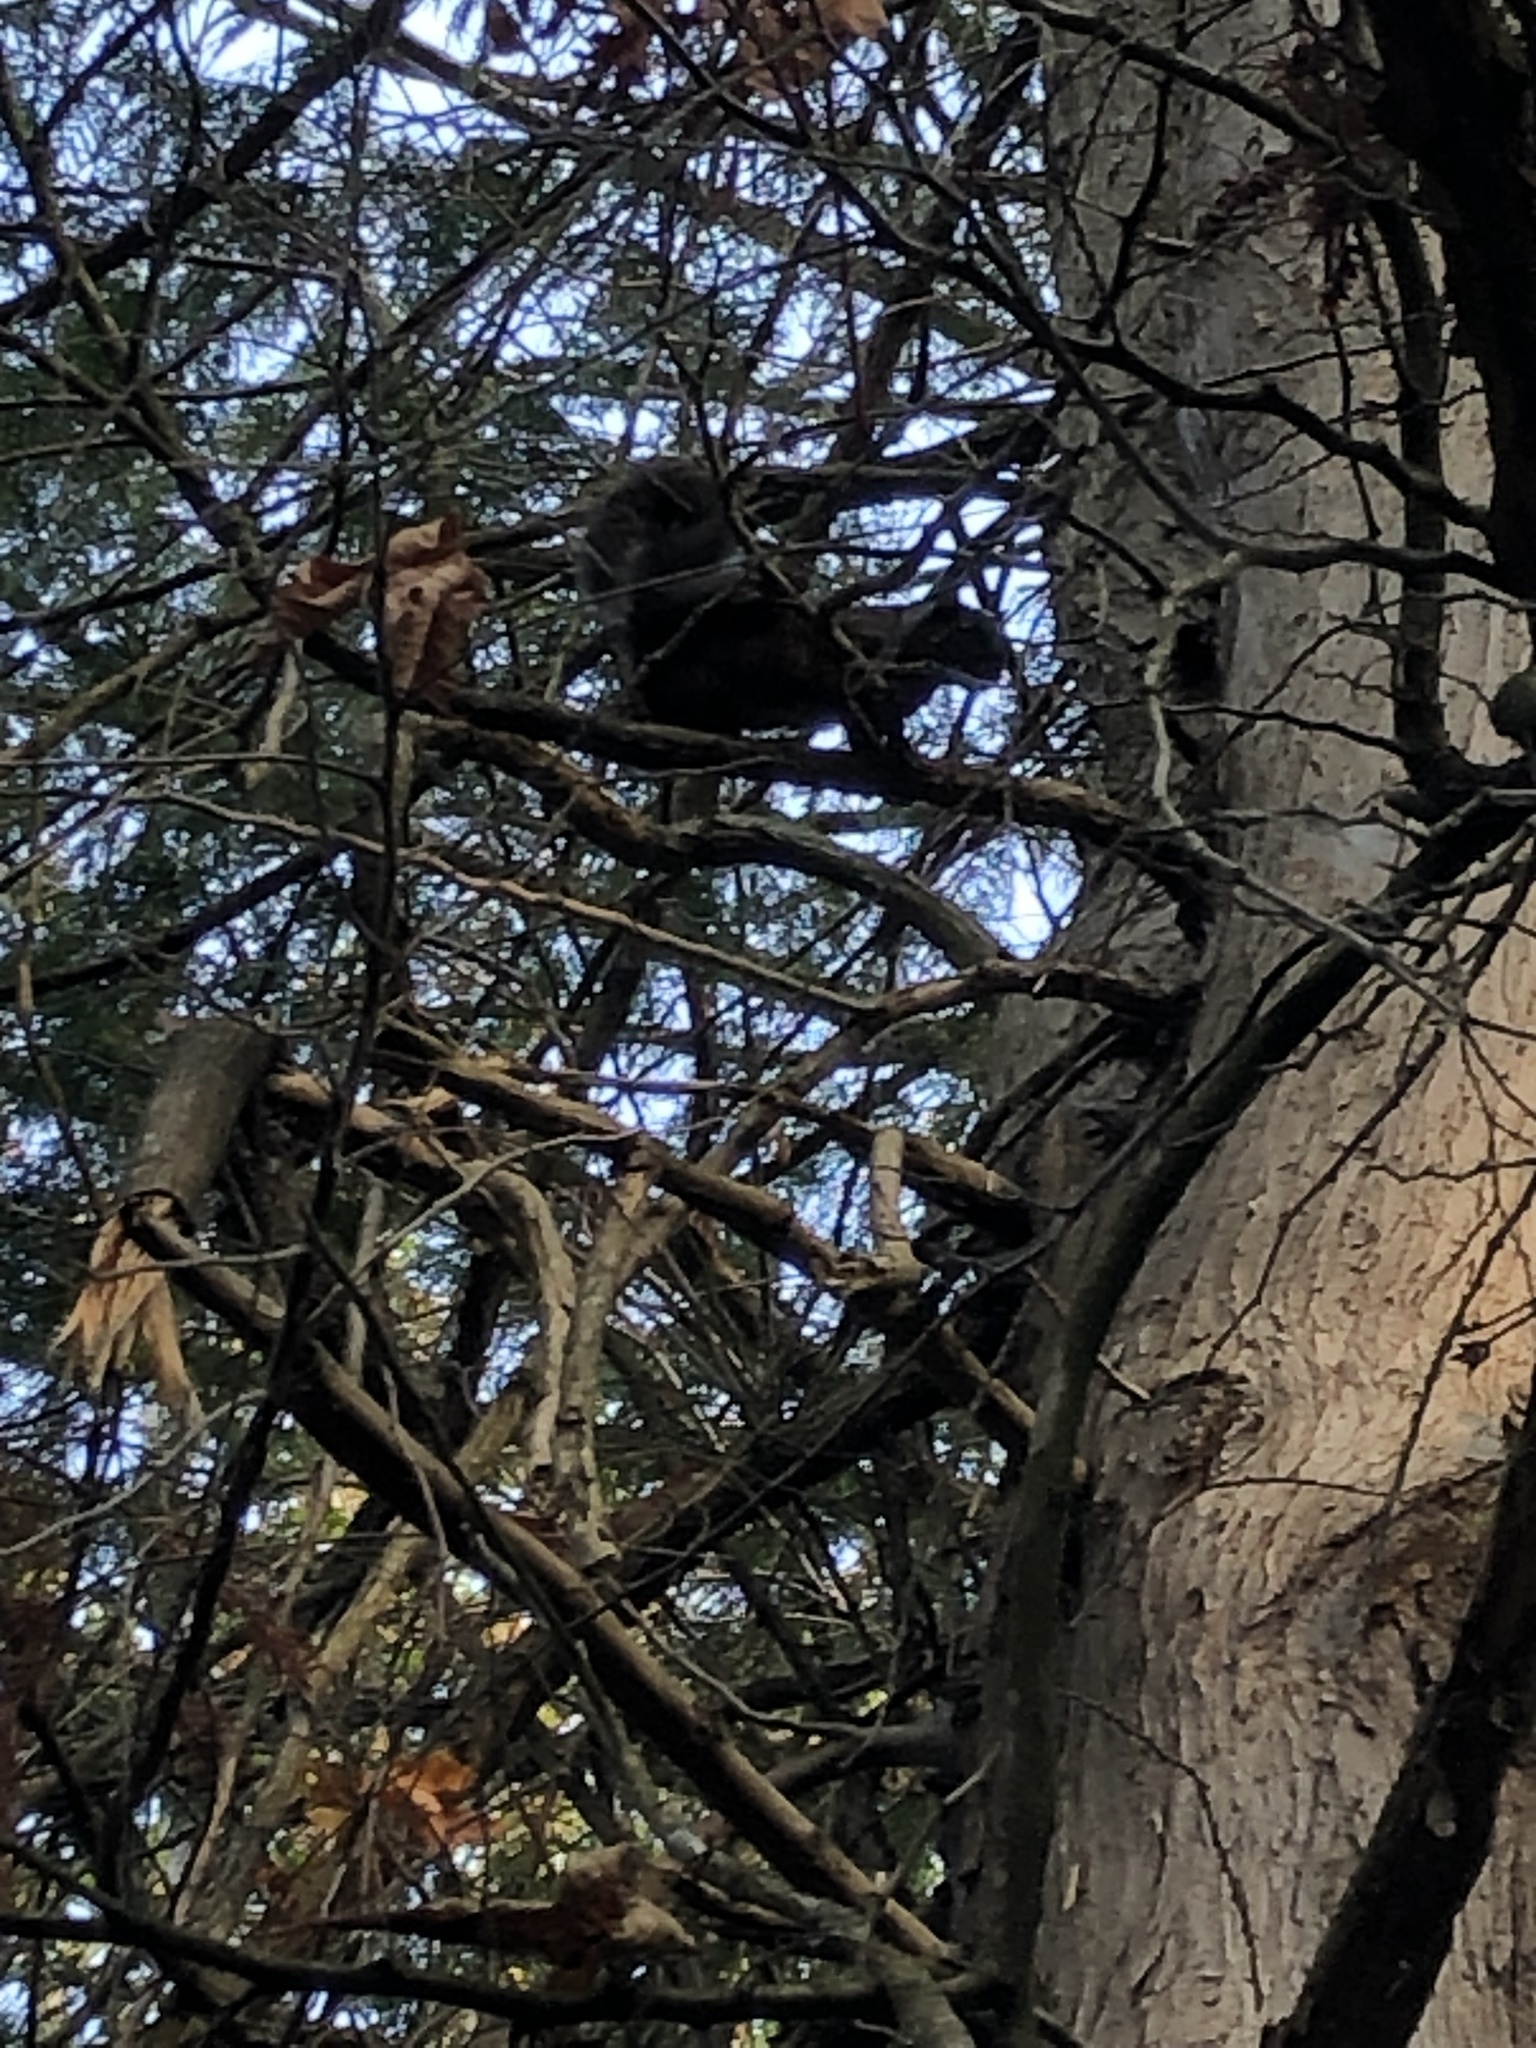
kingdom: Animalia
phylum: Chordata
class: Mammalia
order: Rodentia
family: Sciuridae
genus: Sciurus
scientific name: Sciurus carolinensis
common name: Eastern gray squirrel
